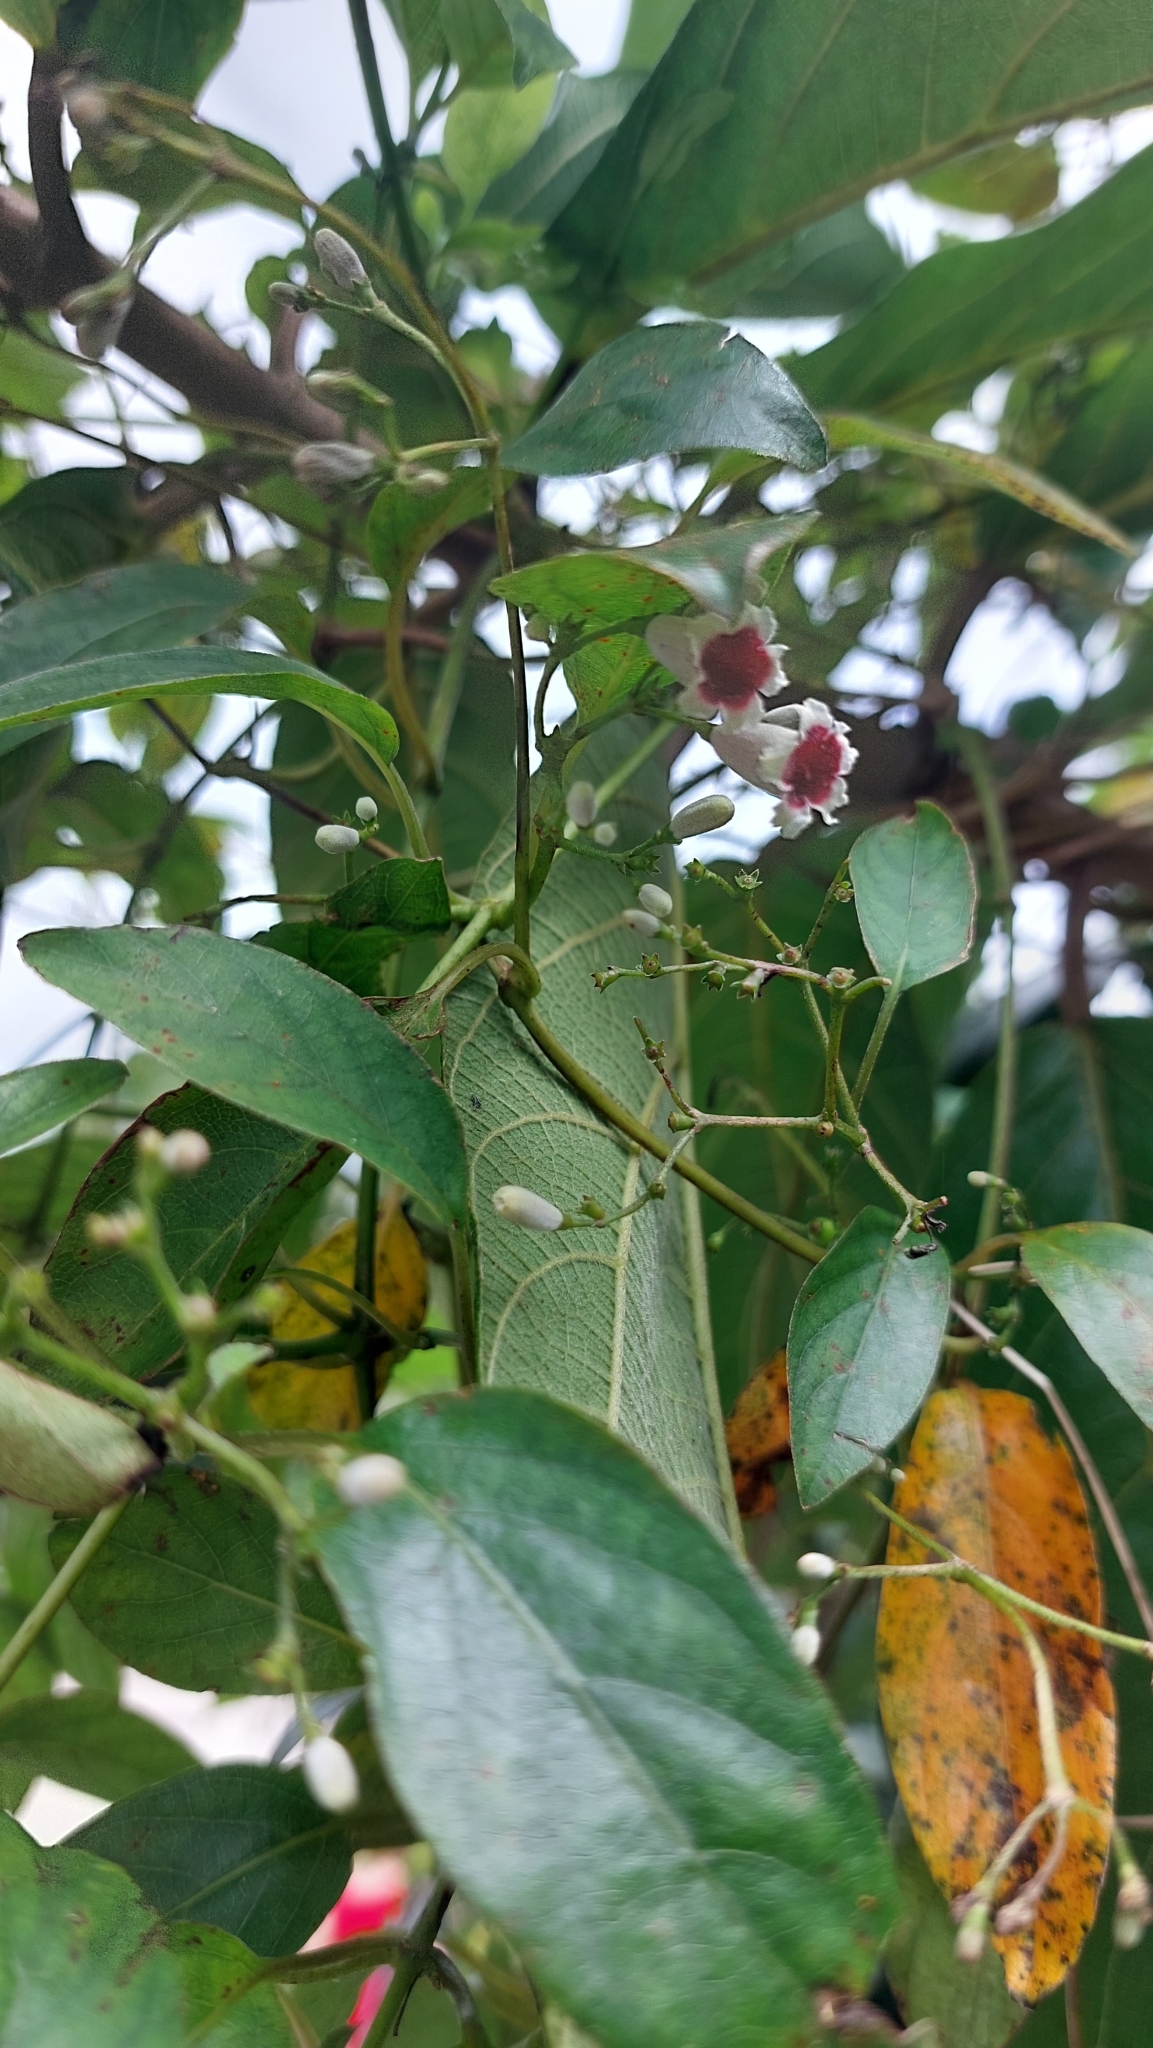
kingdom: Plantae
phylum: Tracheophyta
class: Magnoliopsida
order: Gentianales
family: Rubiaceae
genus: Paederia
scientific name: Paederia foetida
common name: Stinkvine
